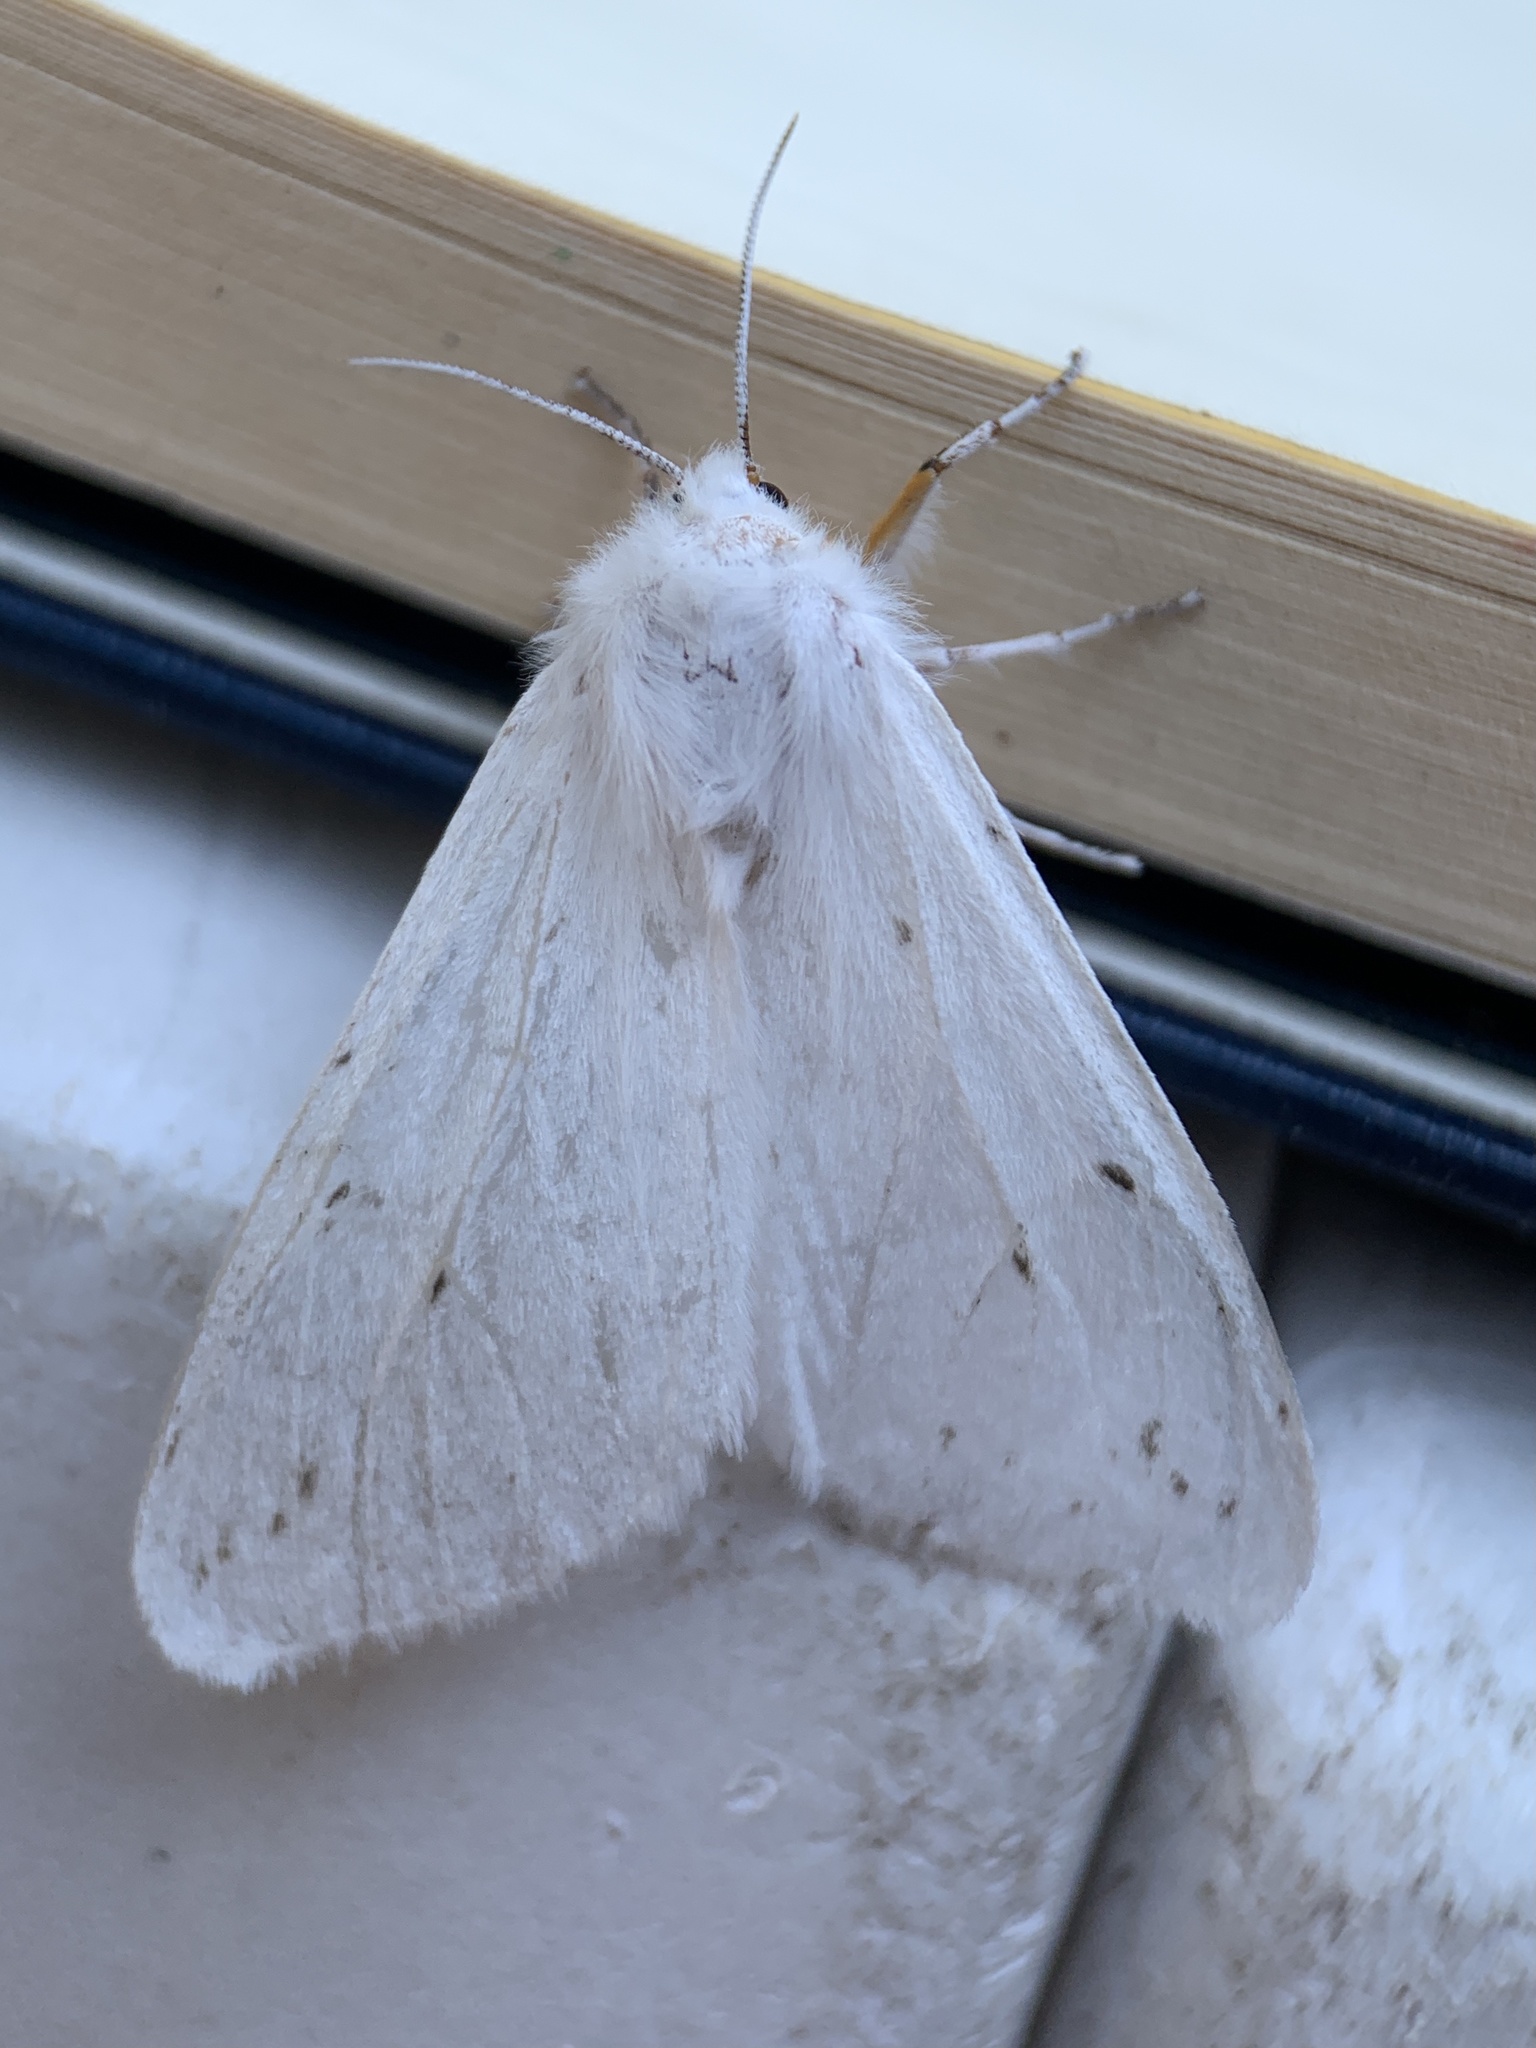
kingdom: Animalia
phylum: Arthropoda
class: Insecta
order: Lepidoptera
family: Erebidae
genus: Spilosoma
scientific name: Spilosoma congrua
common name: Agreeable tiger moth
